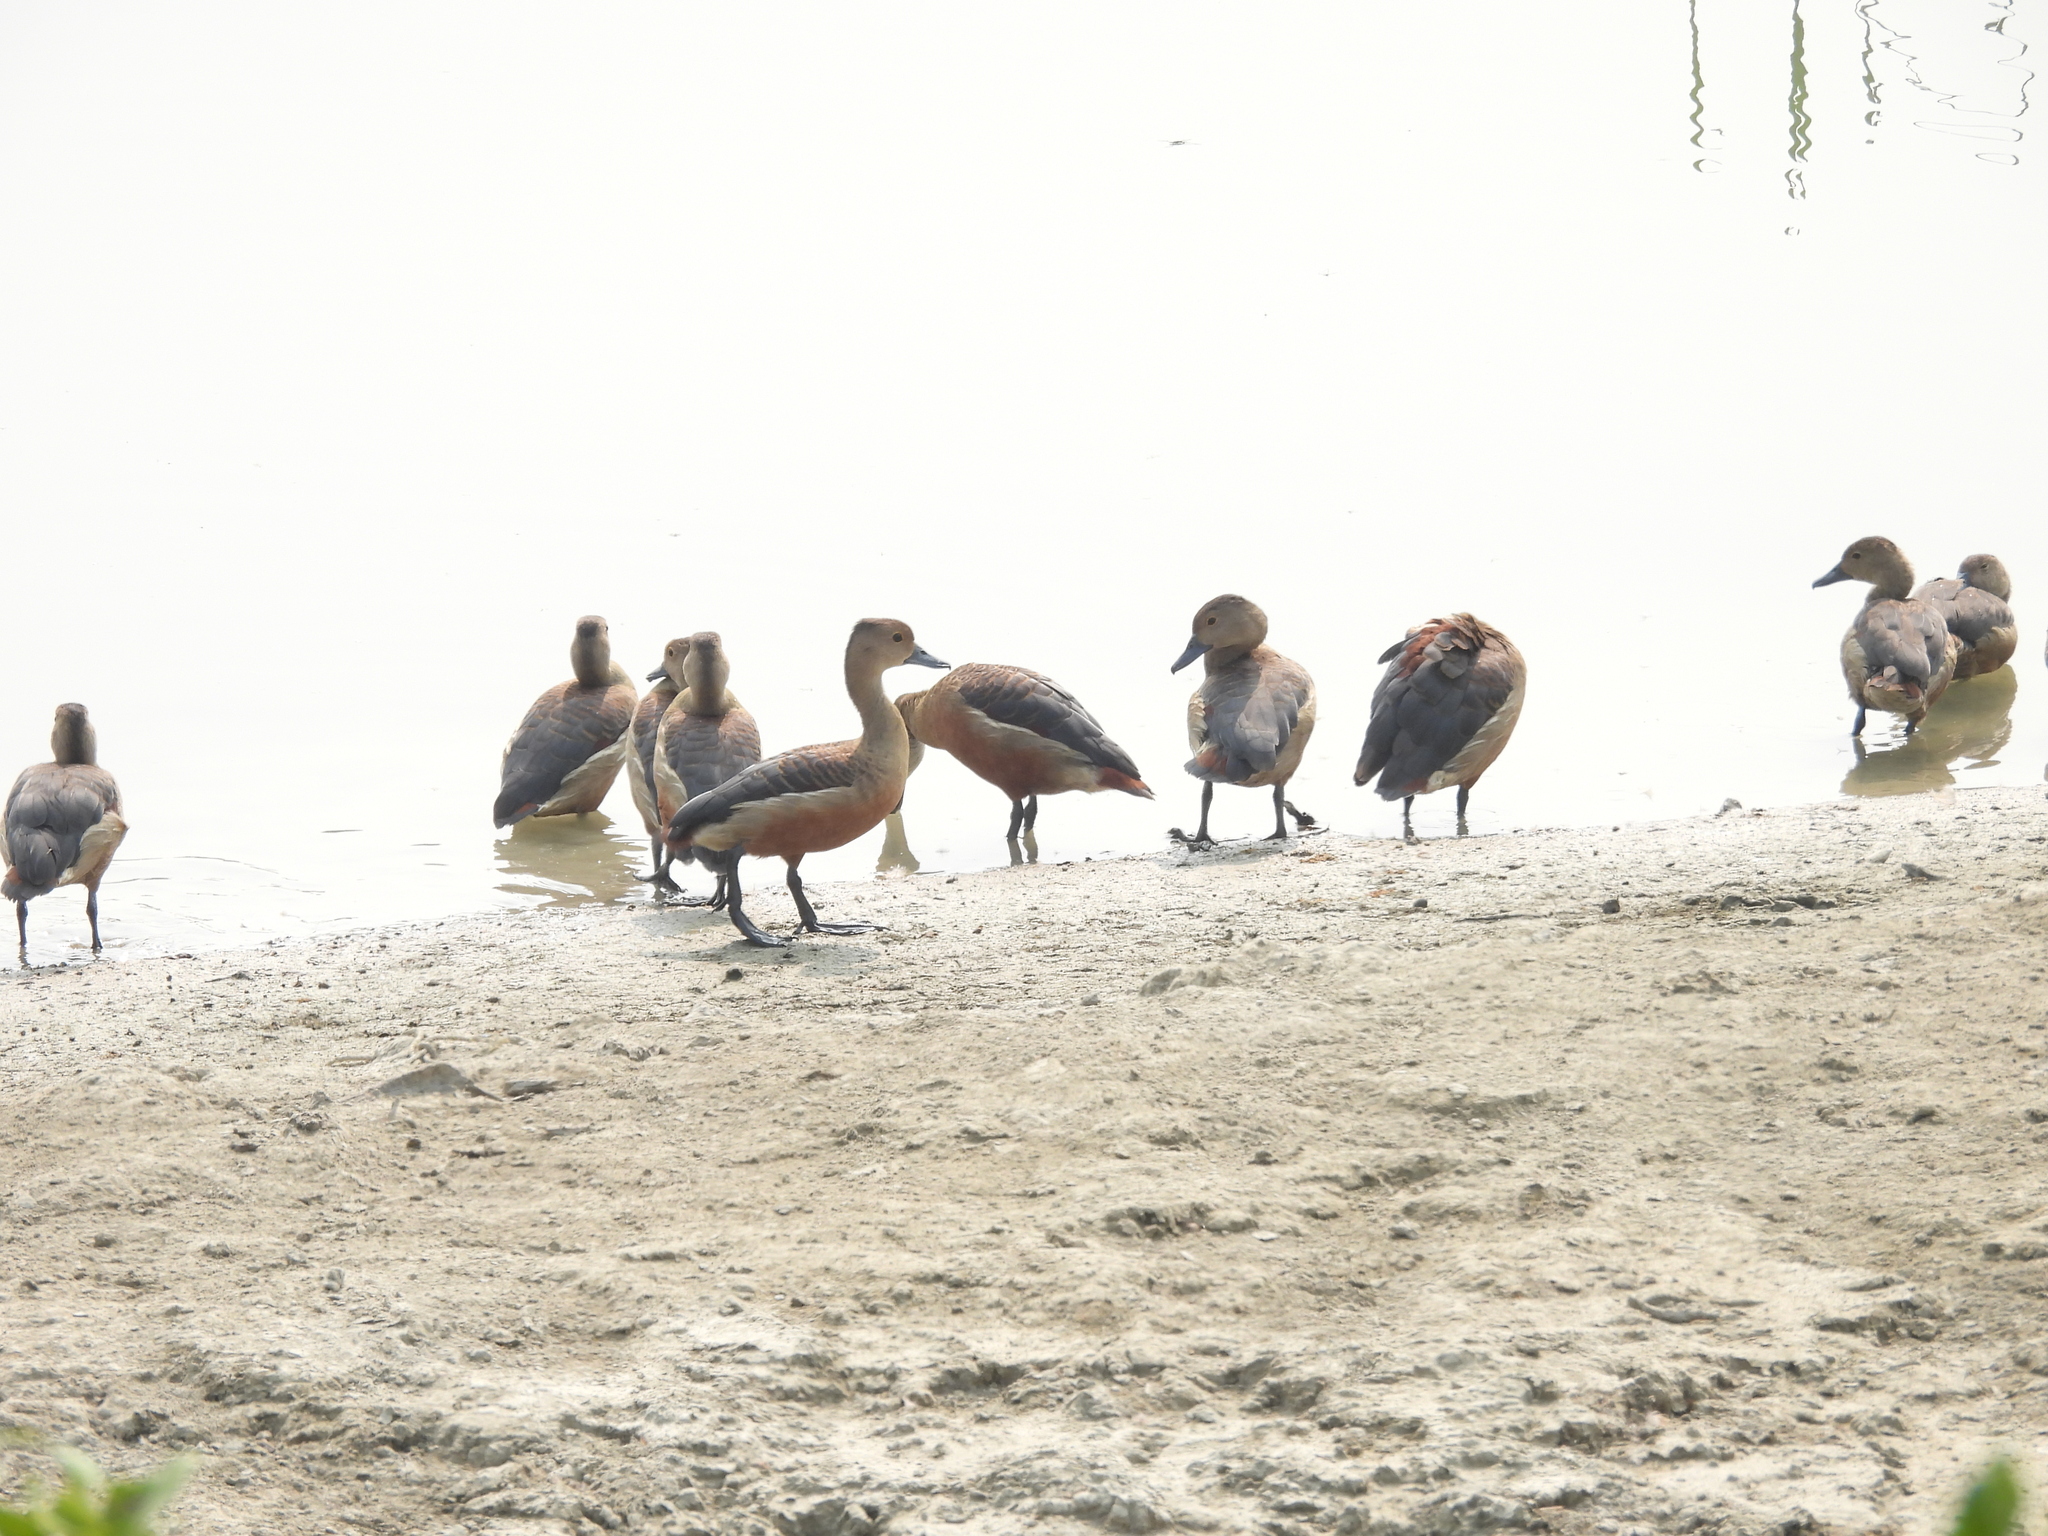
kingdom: Animalia
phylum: Chordata
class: Aves
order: Anseriformes
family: Anatidae
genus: Dendrocygna
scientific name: Dendrocygna javanica
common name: Lesser whistling-duck
